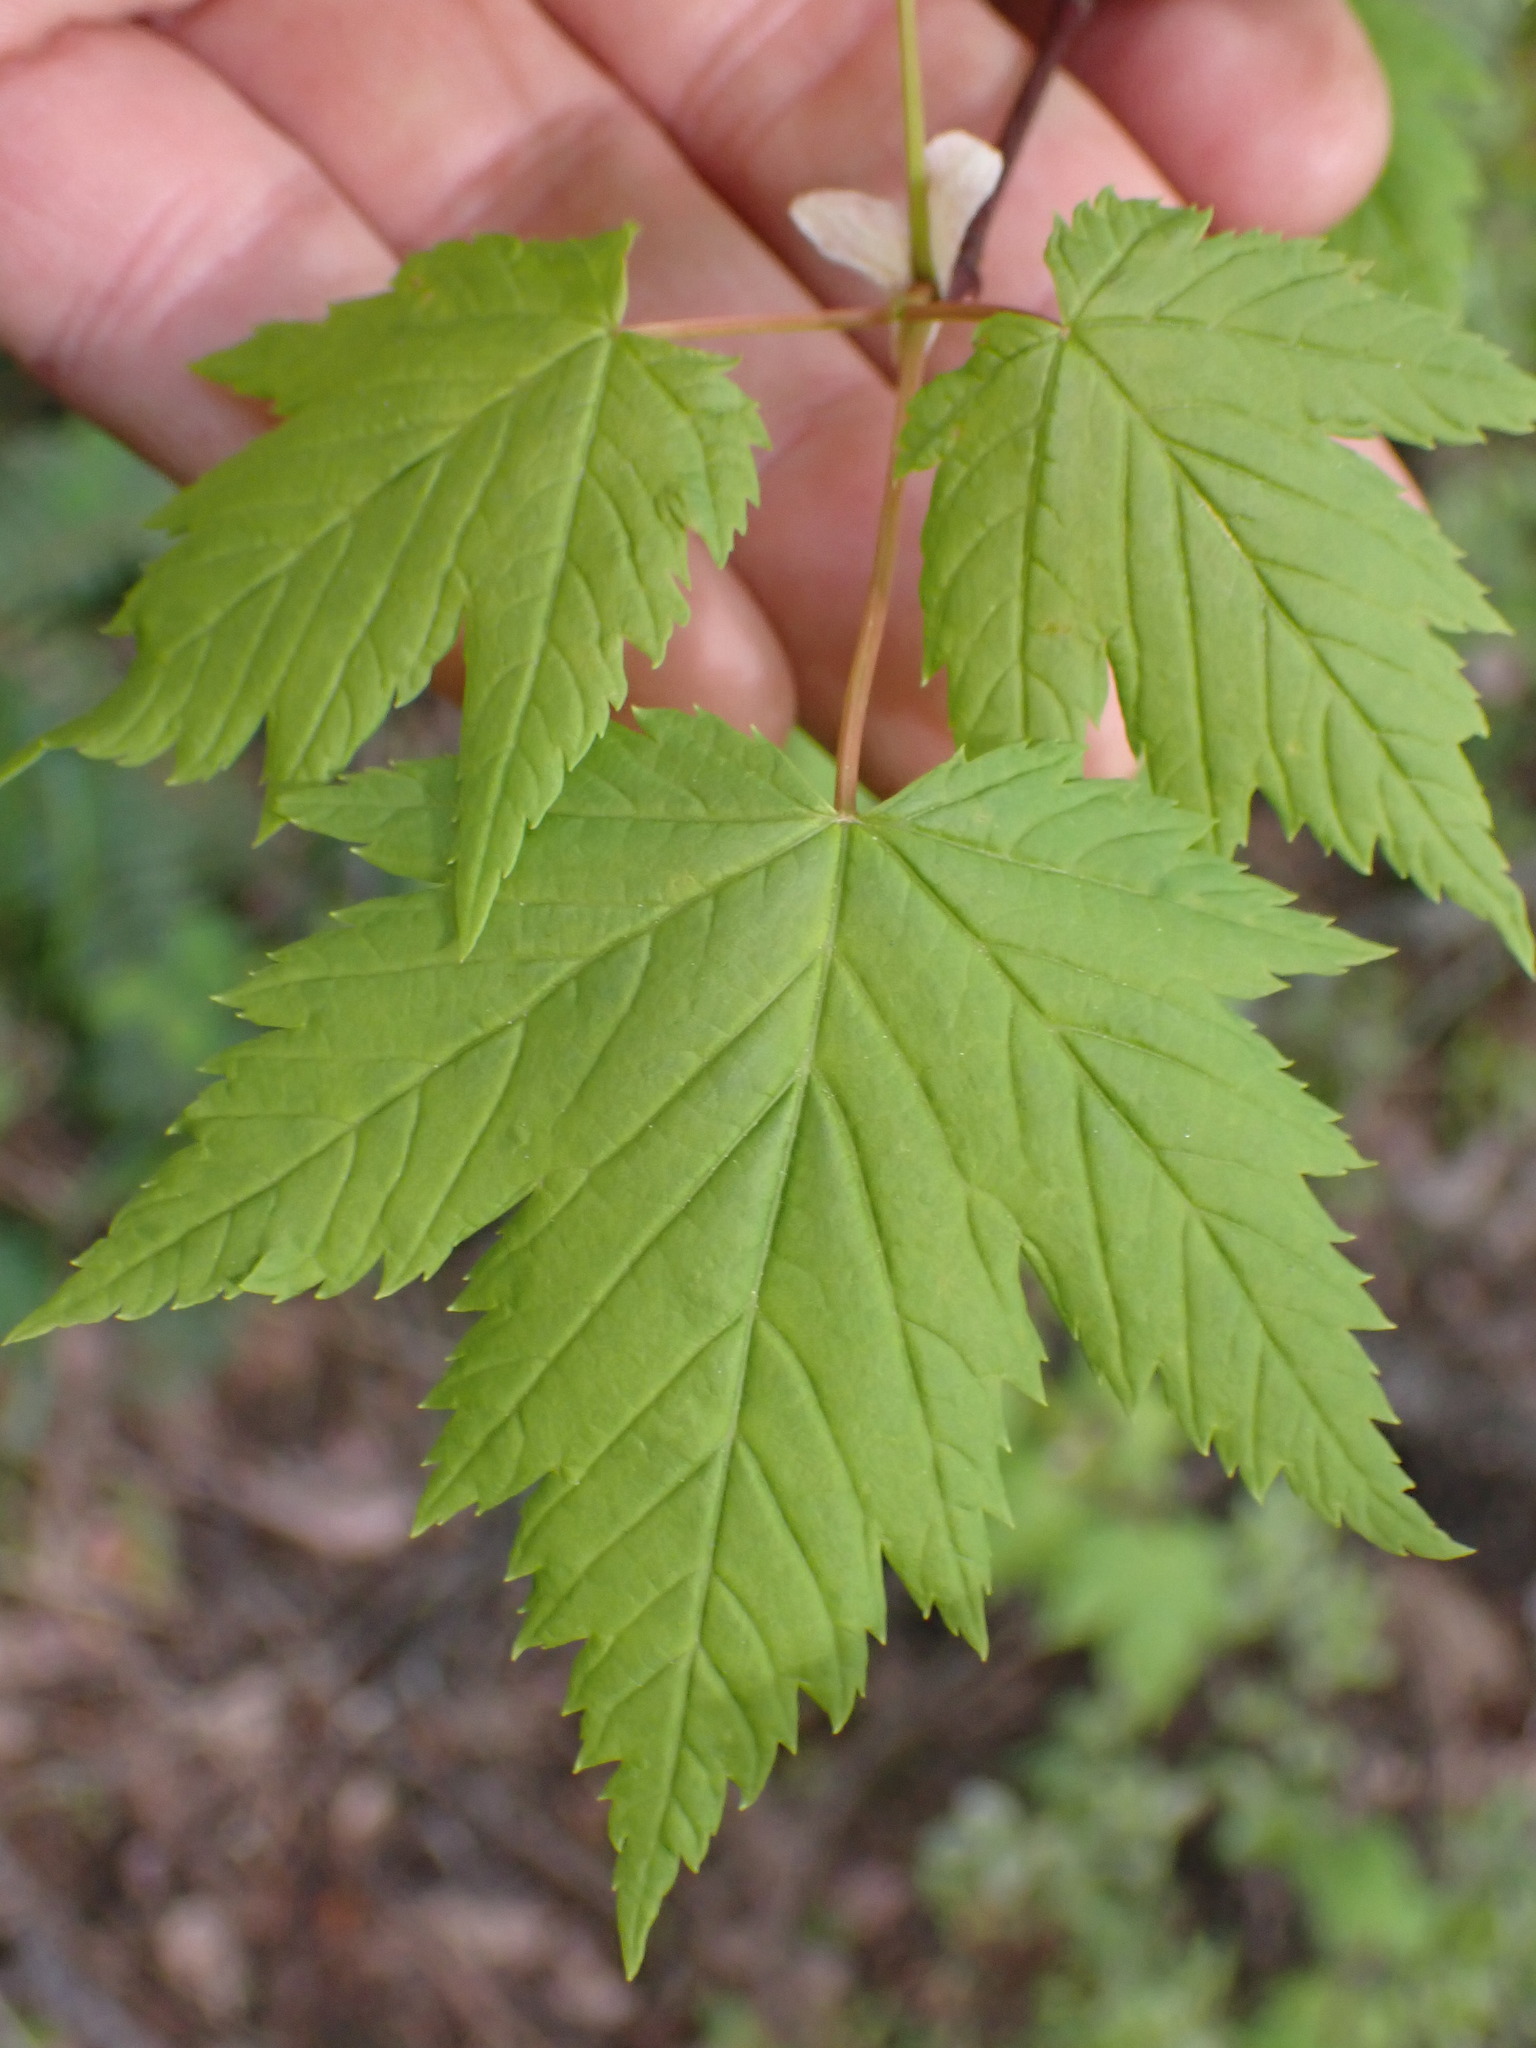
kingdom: Plantae
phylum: Tracheophyta
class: Magnoliopsida
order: Sapindales
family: Sapindaceae
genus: Acer
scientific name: Acer glabrum
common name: Rocky mountain maple
